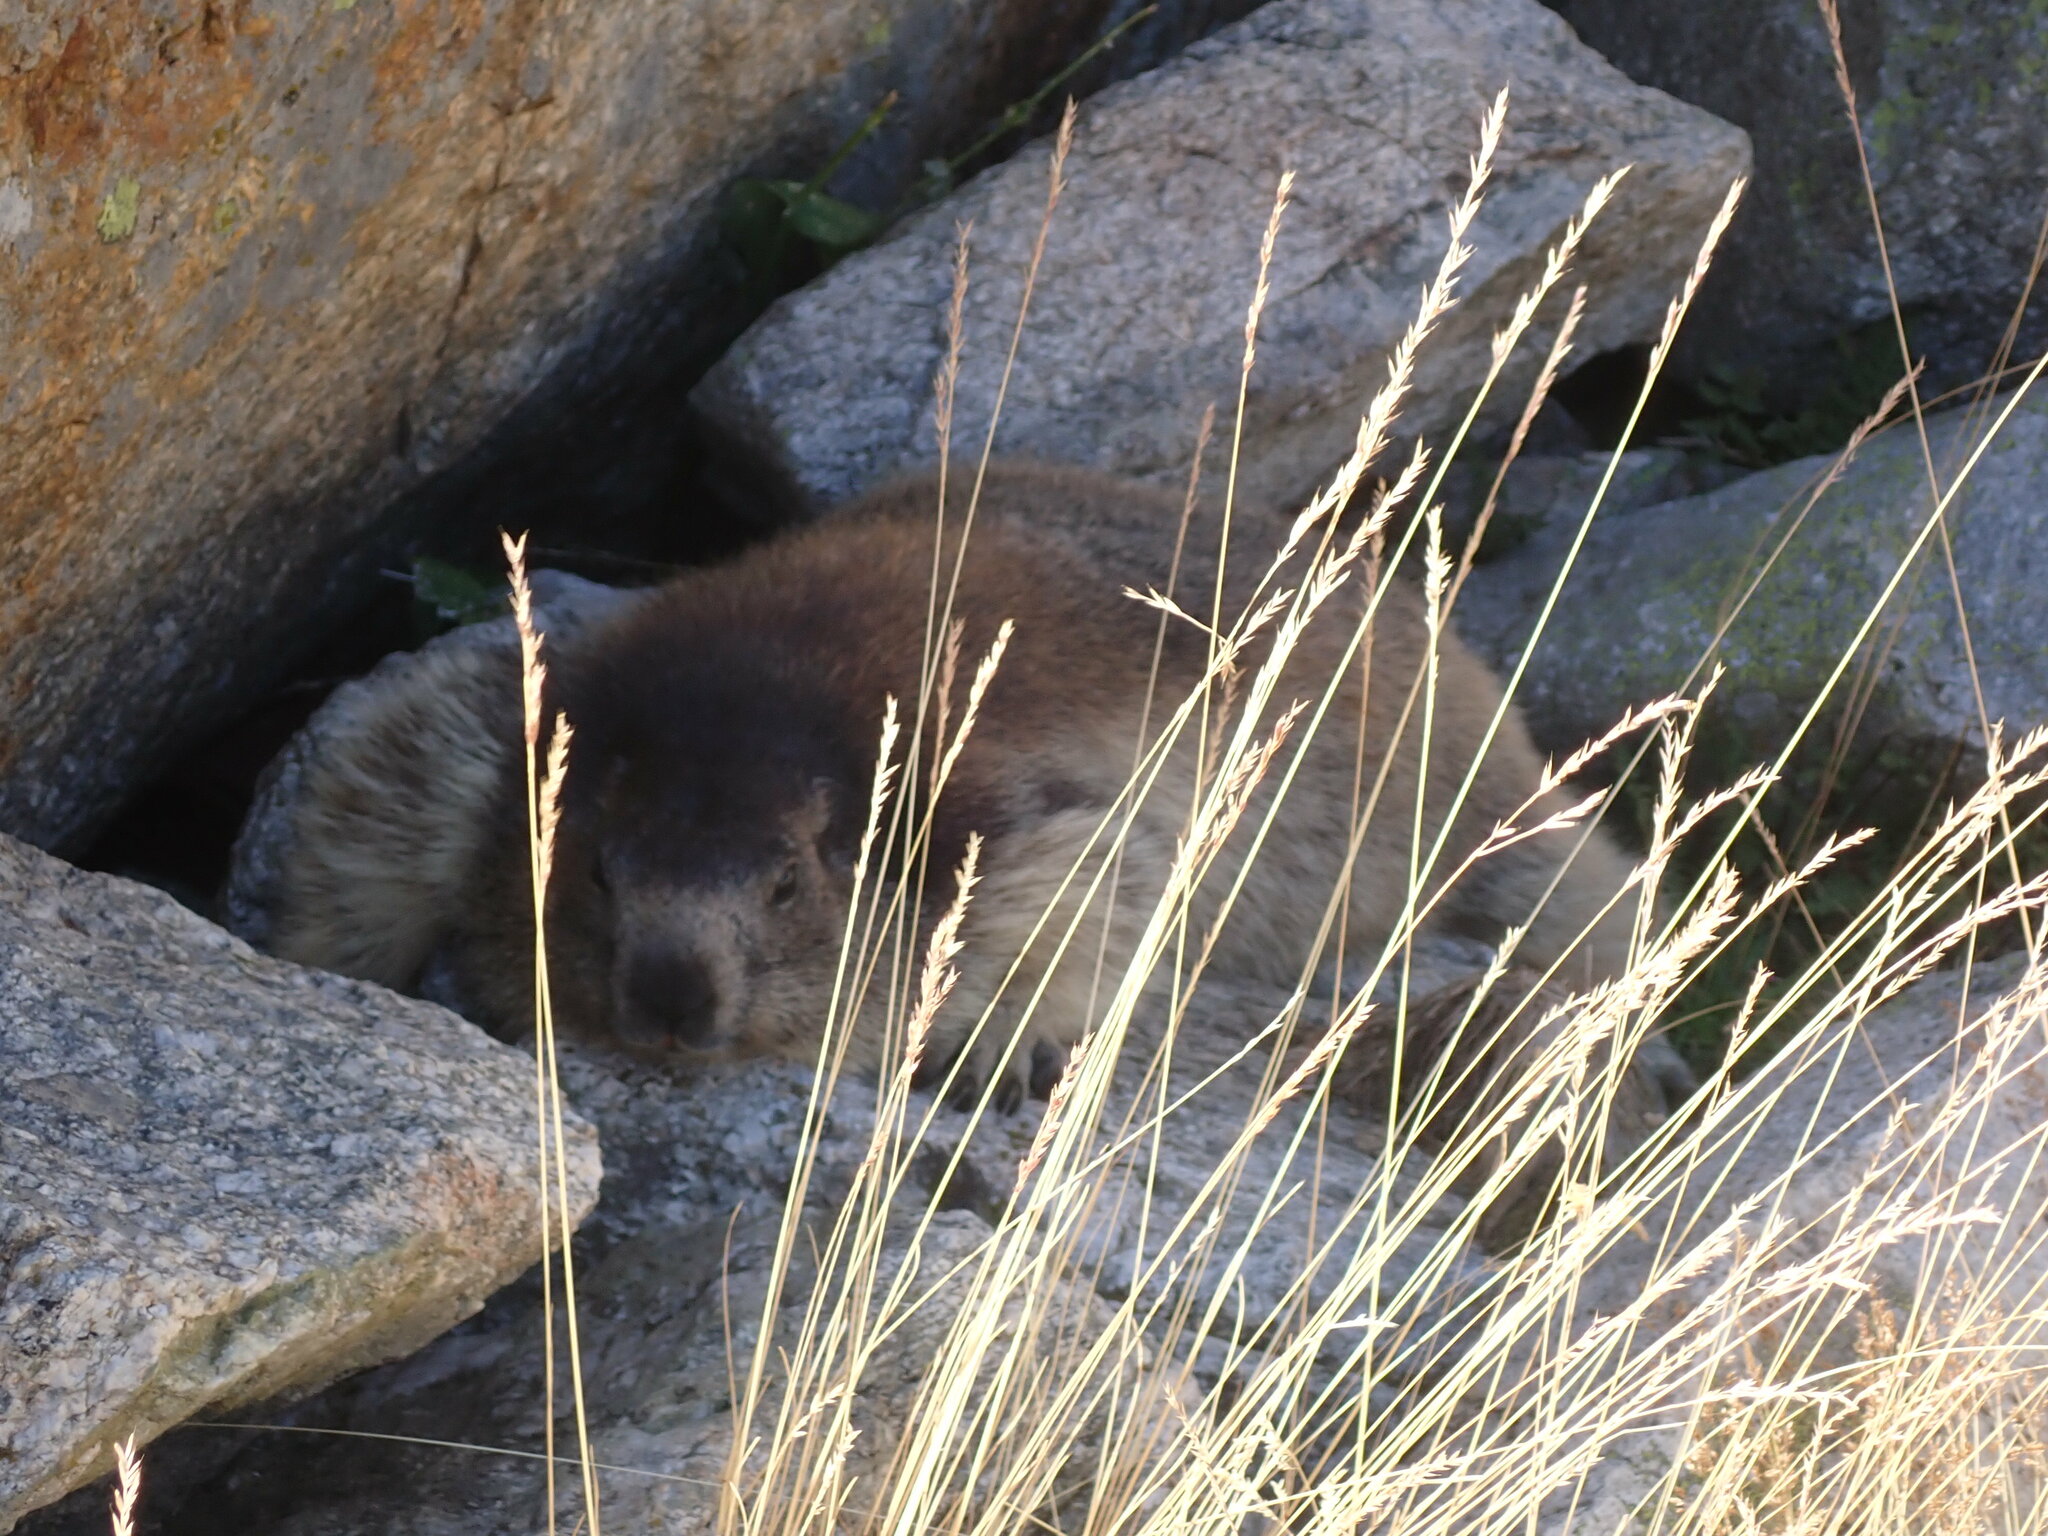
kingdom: Animalia
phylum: Chordata
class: Mammalia
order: Rodentia
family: Sciuridae
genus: Marmota
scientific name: Marmota marmota
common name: Alpine marmot
